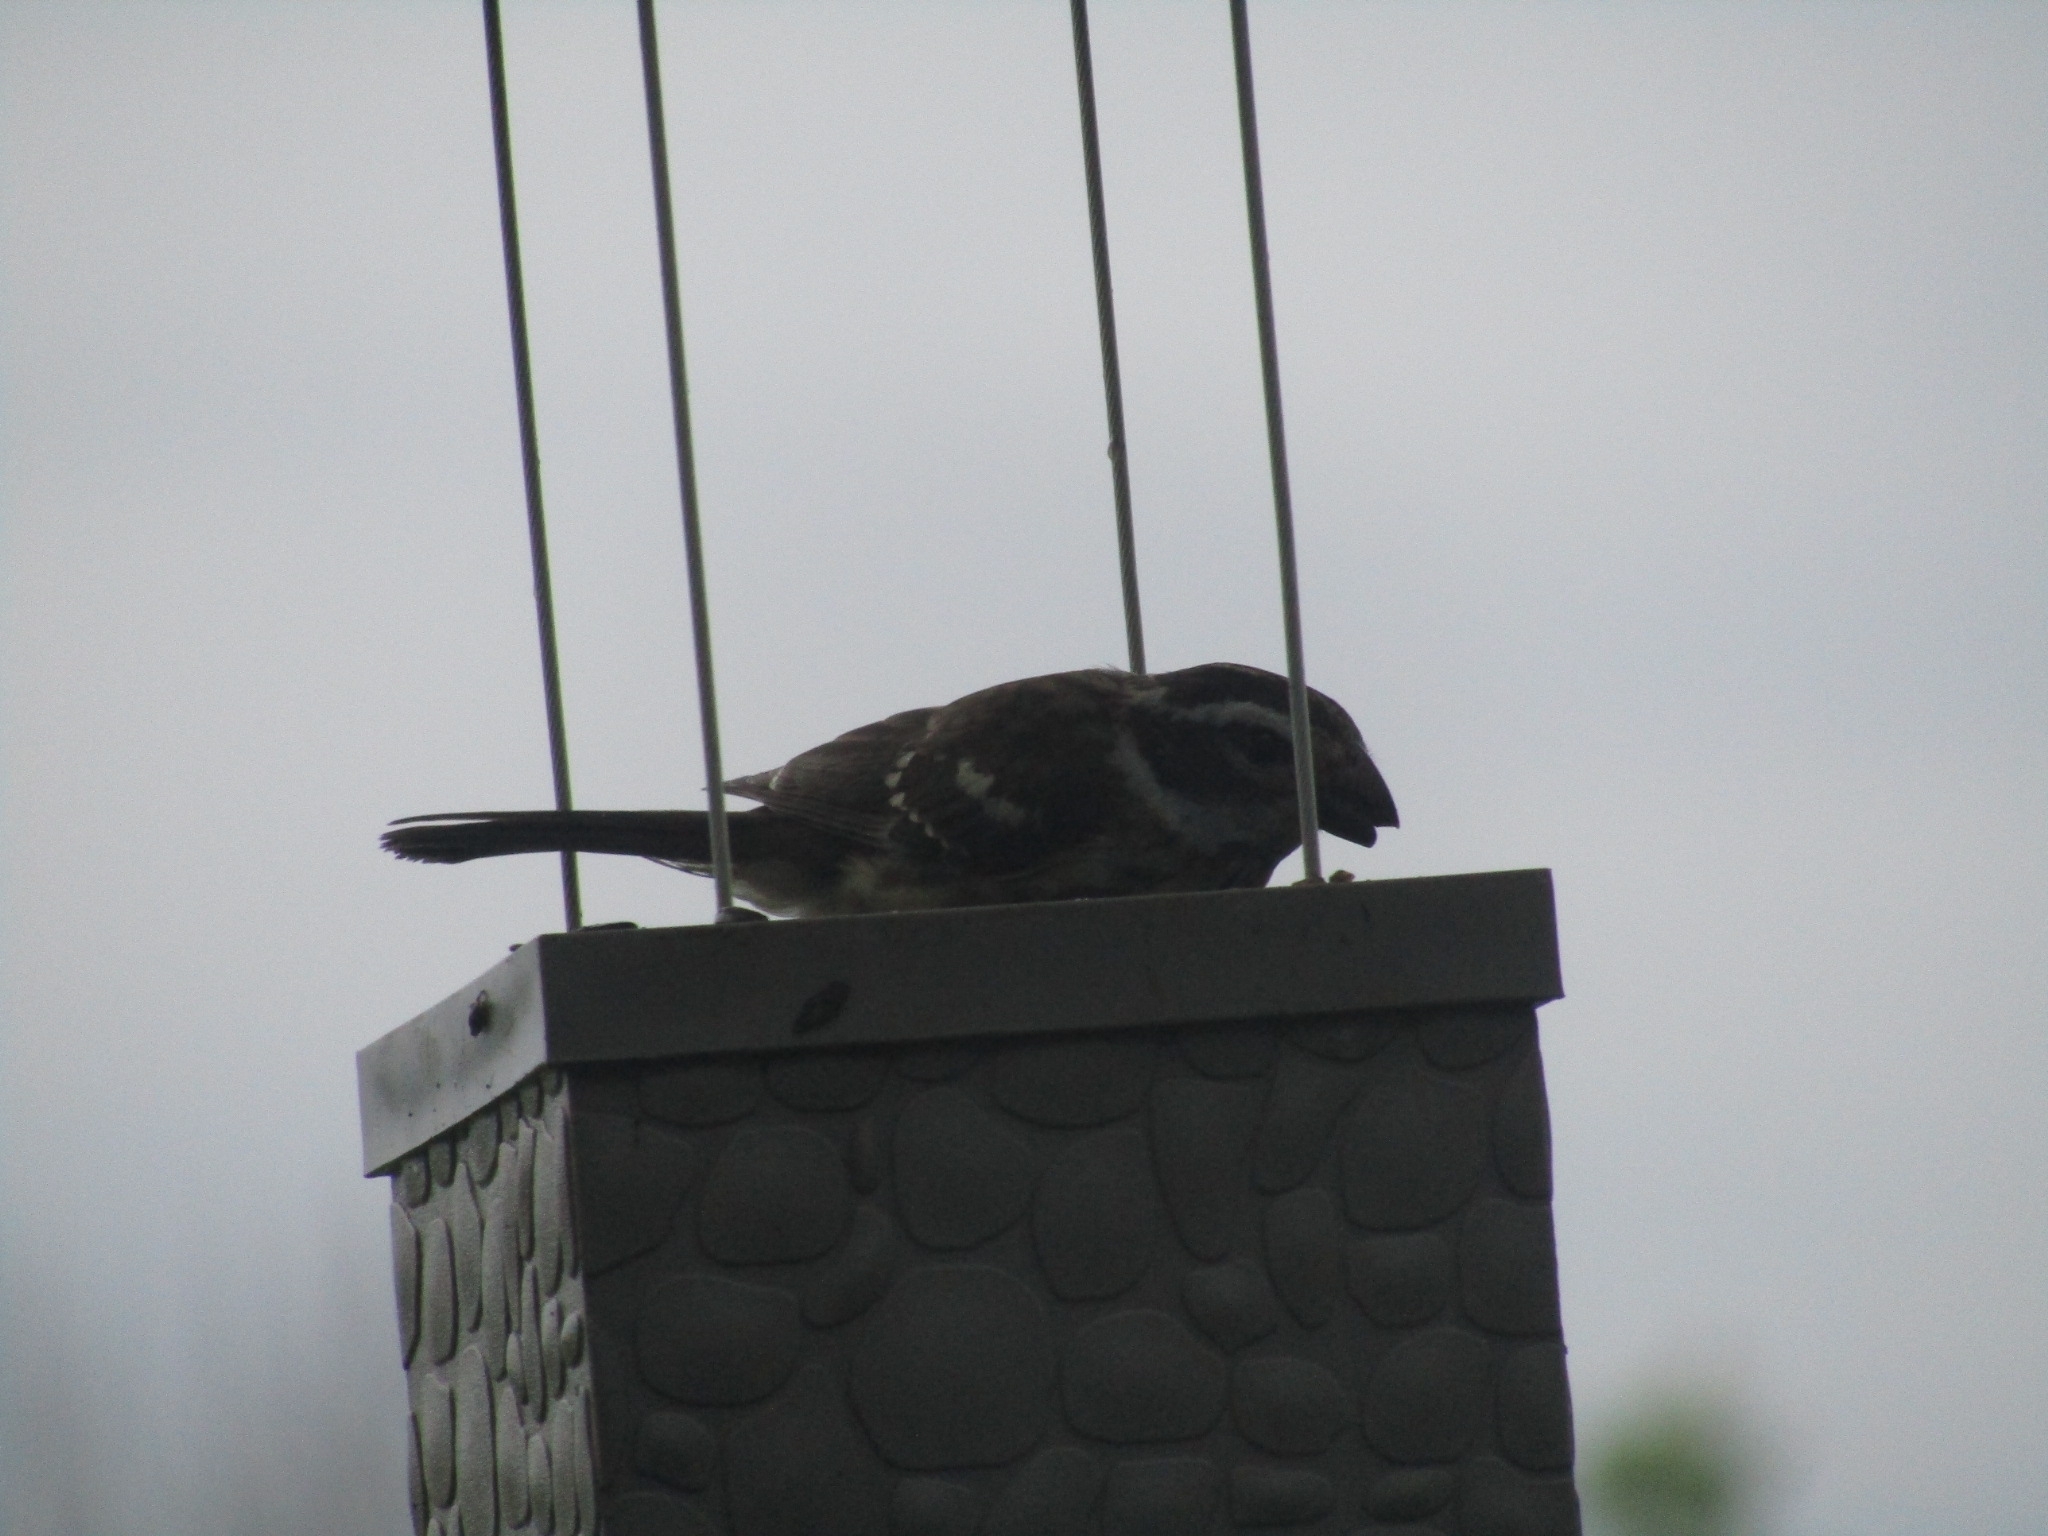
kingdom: Animalia
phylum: Chordata
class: Aves
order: Passeriformes
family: Cardinalidae
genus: Pheucticus
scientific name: Pheucticus ludovicianus
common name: Rose-breasted grosbeak
